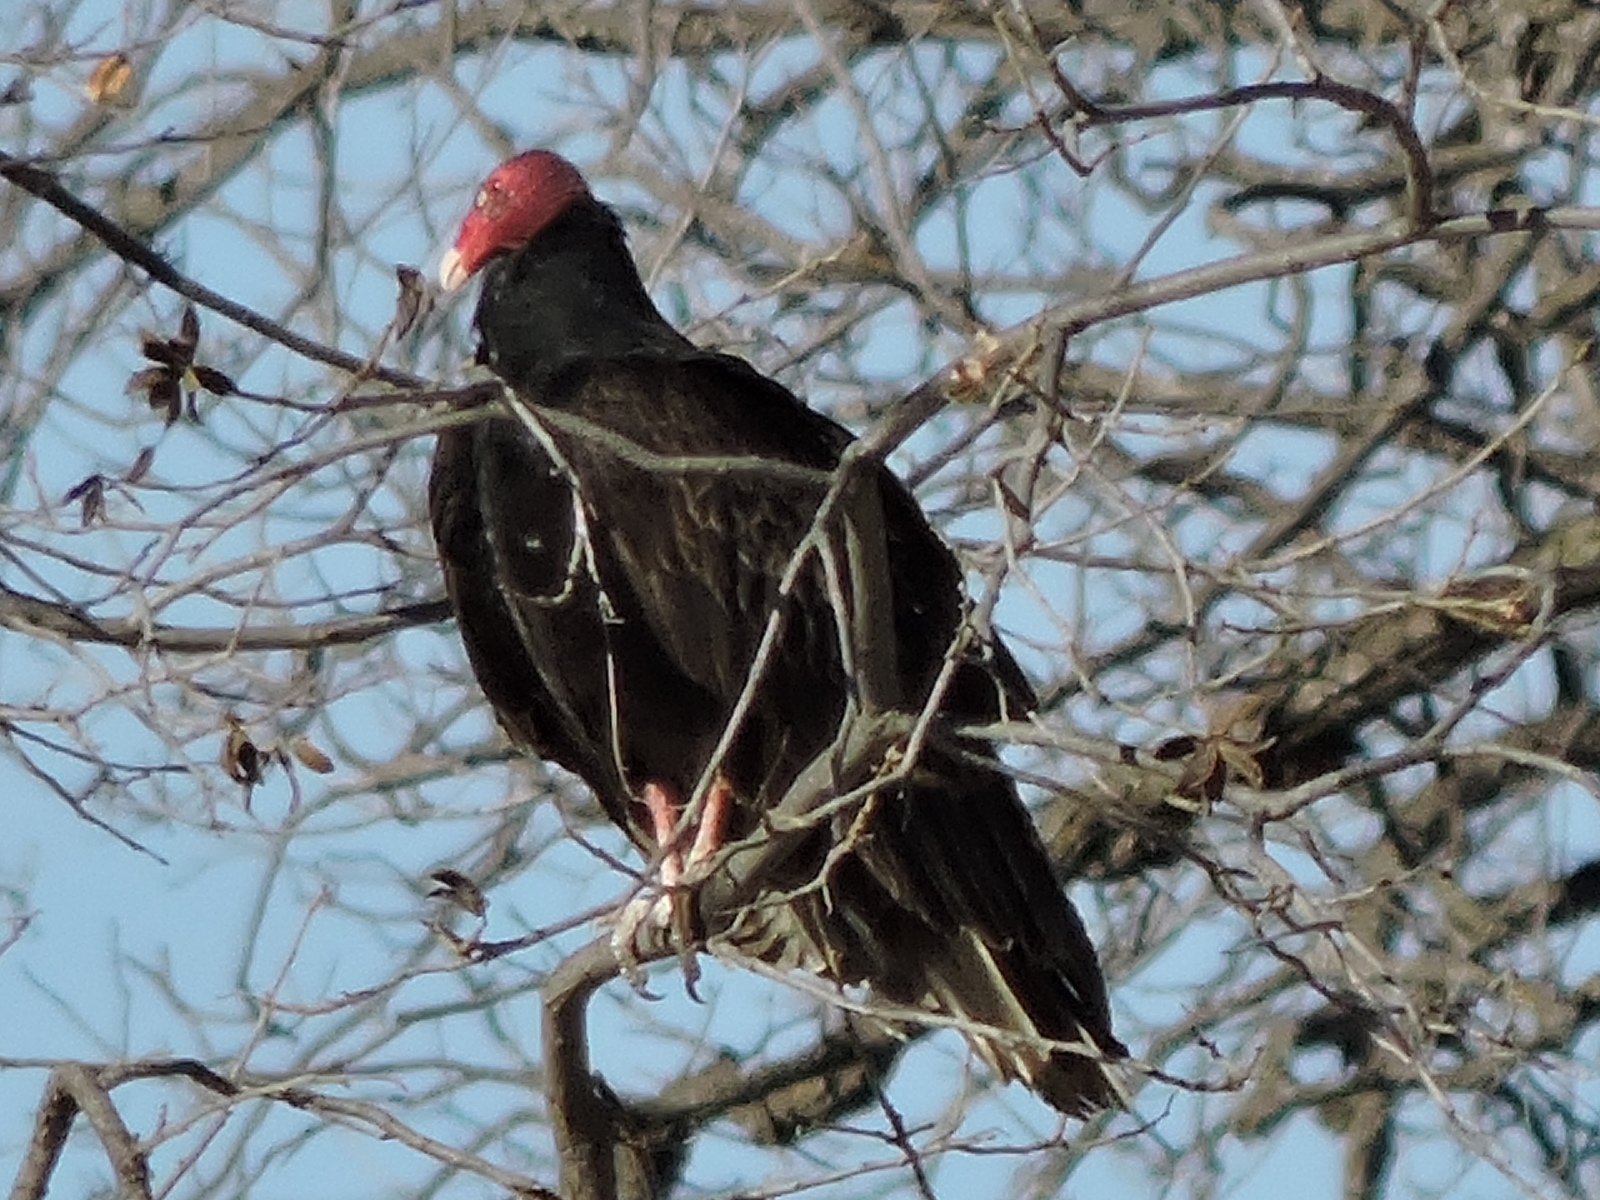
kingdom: Animalia
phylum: Chordata
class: Aves
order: Accipitriformes
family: Cathartidae
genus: Cathartes
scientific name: Cathartes aura
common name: Turkey vulture
